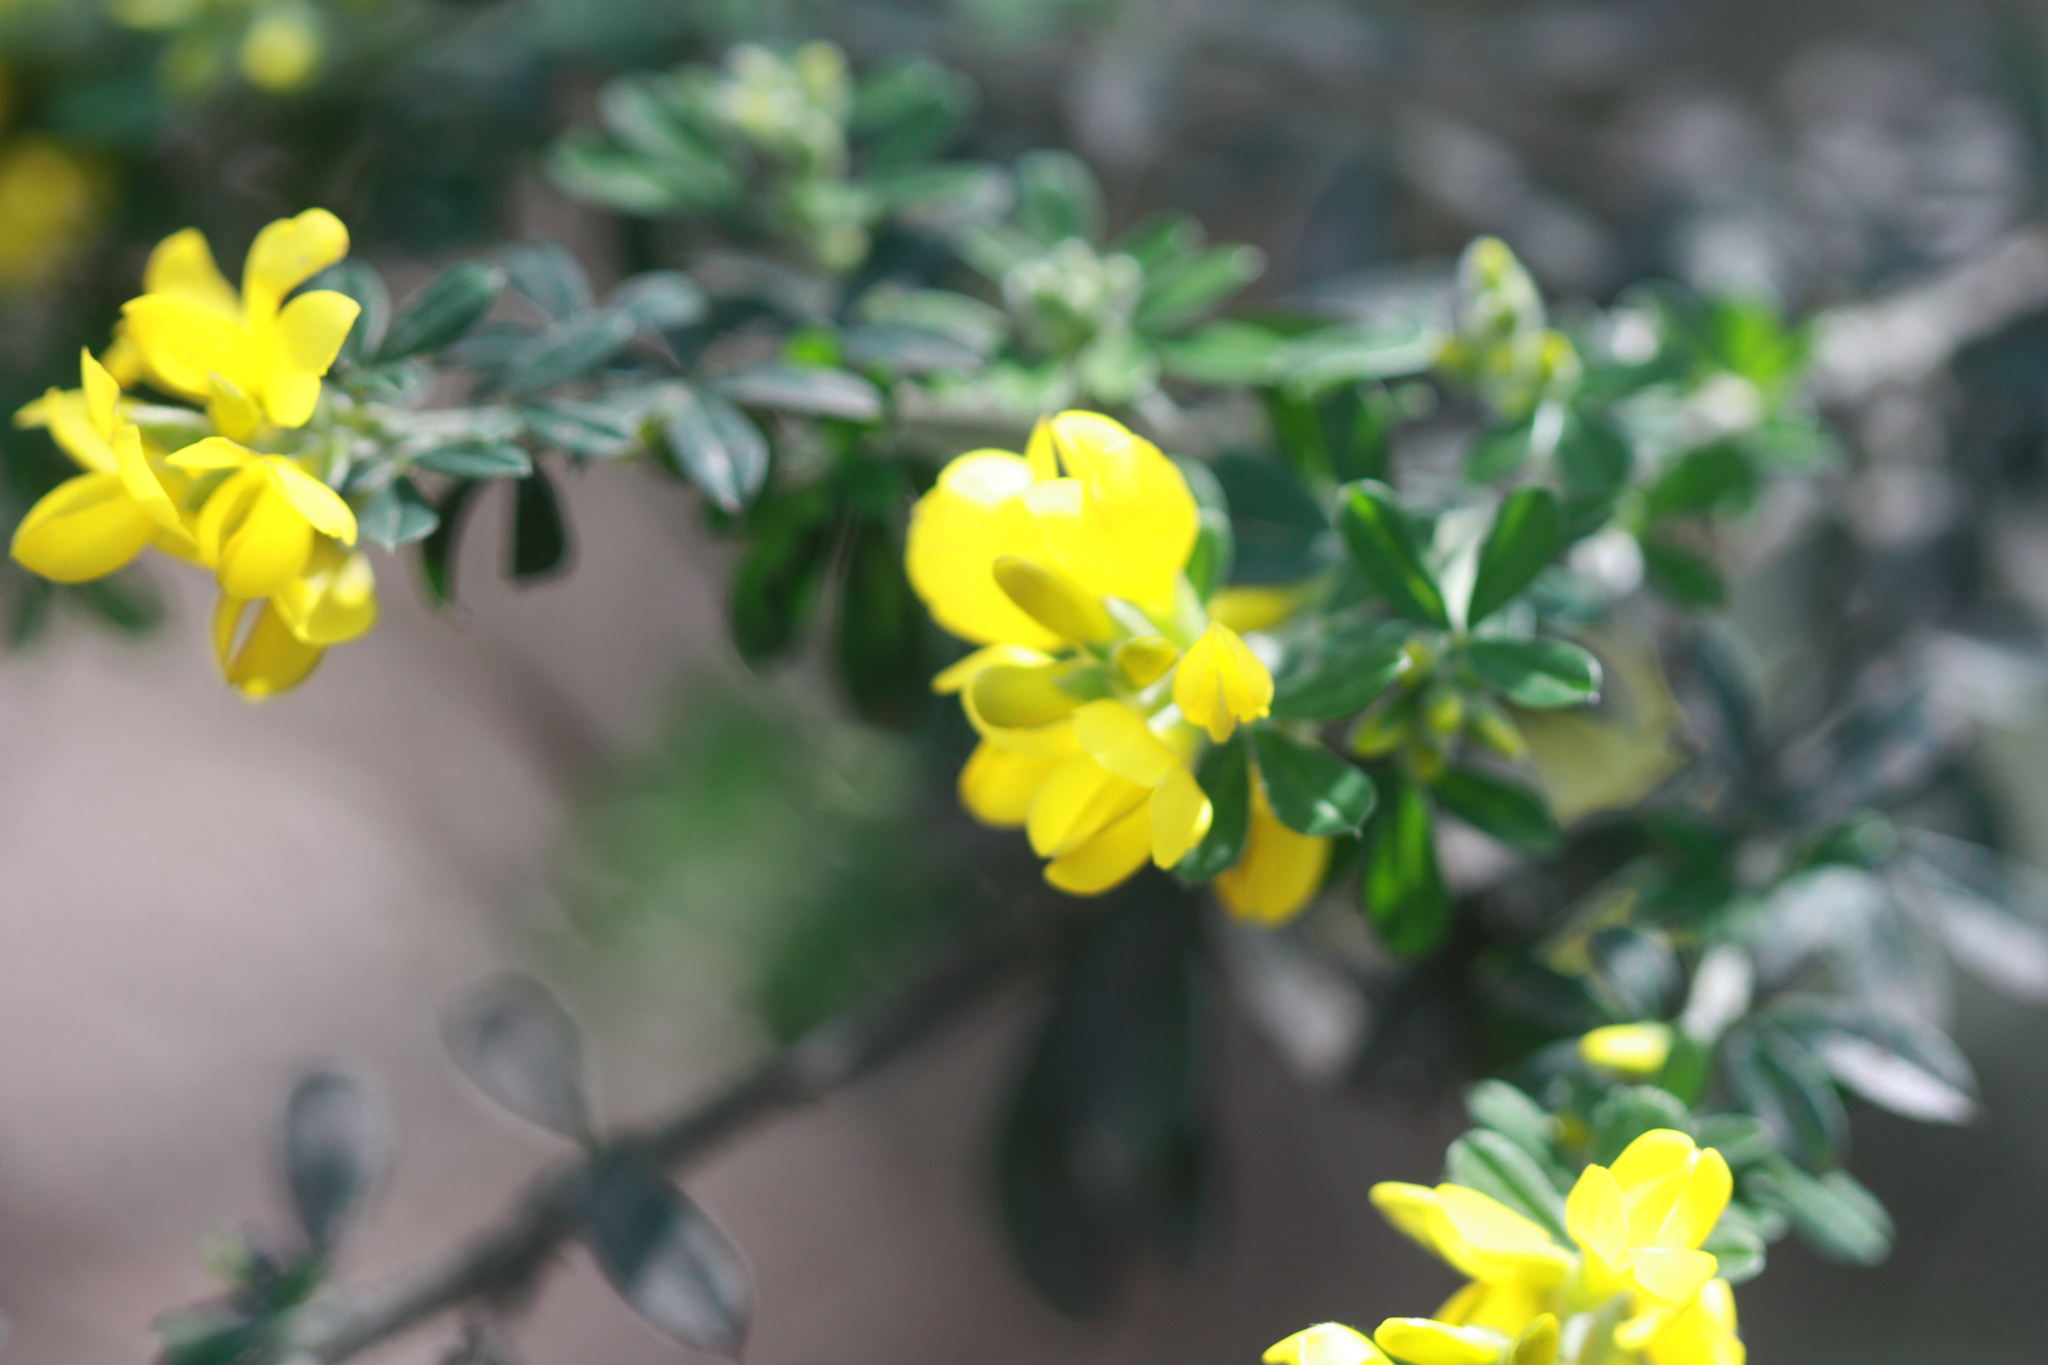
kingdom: Plantae
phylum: Tracheophyta
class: Magnoliopsida
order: Fabales
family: Fabaceae
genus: Genista
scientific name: Genista monspessulana
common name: Montpellier broom
